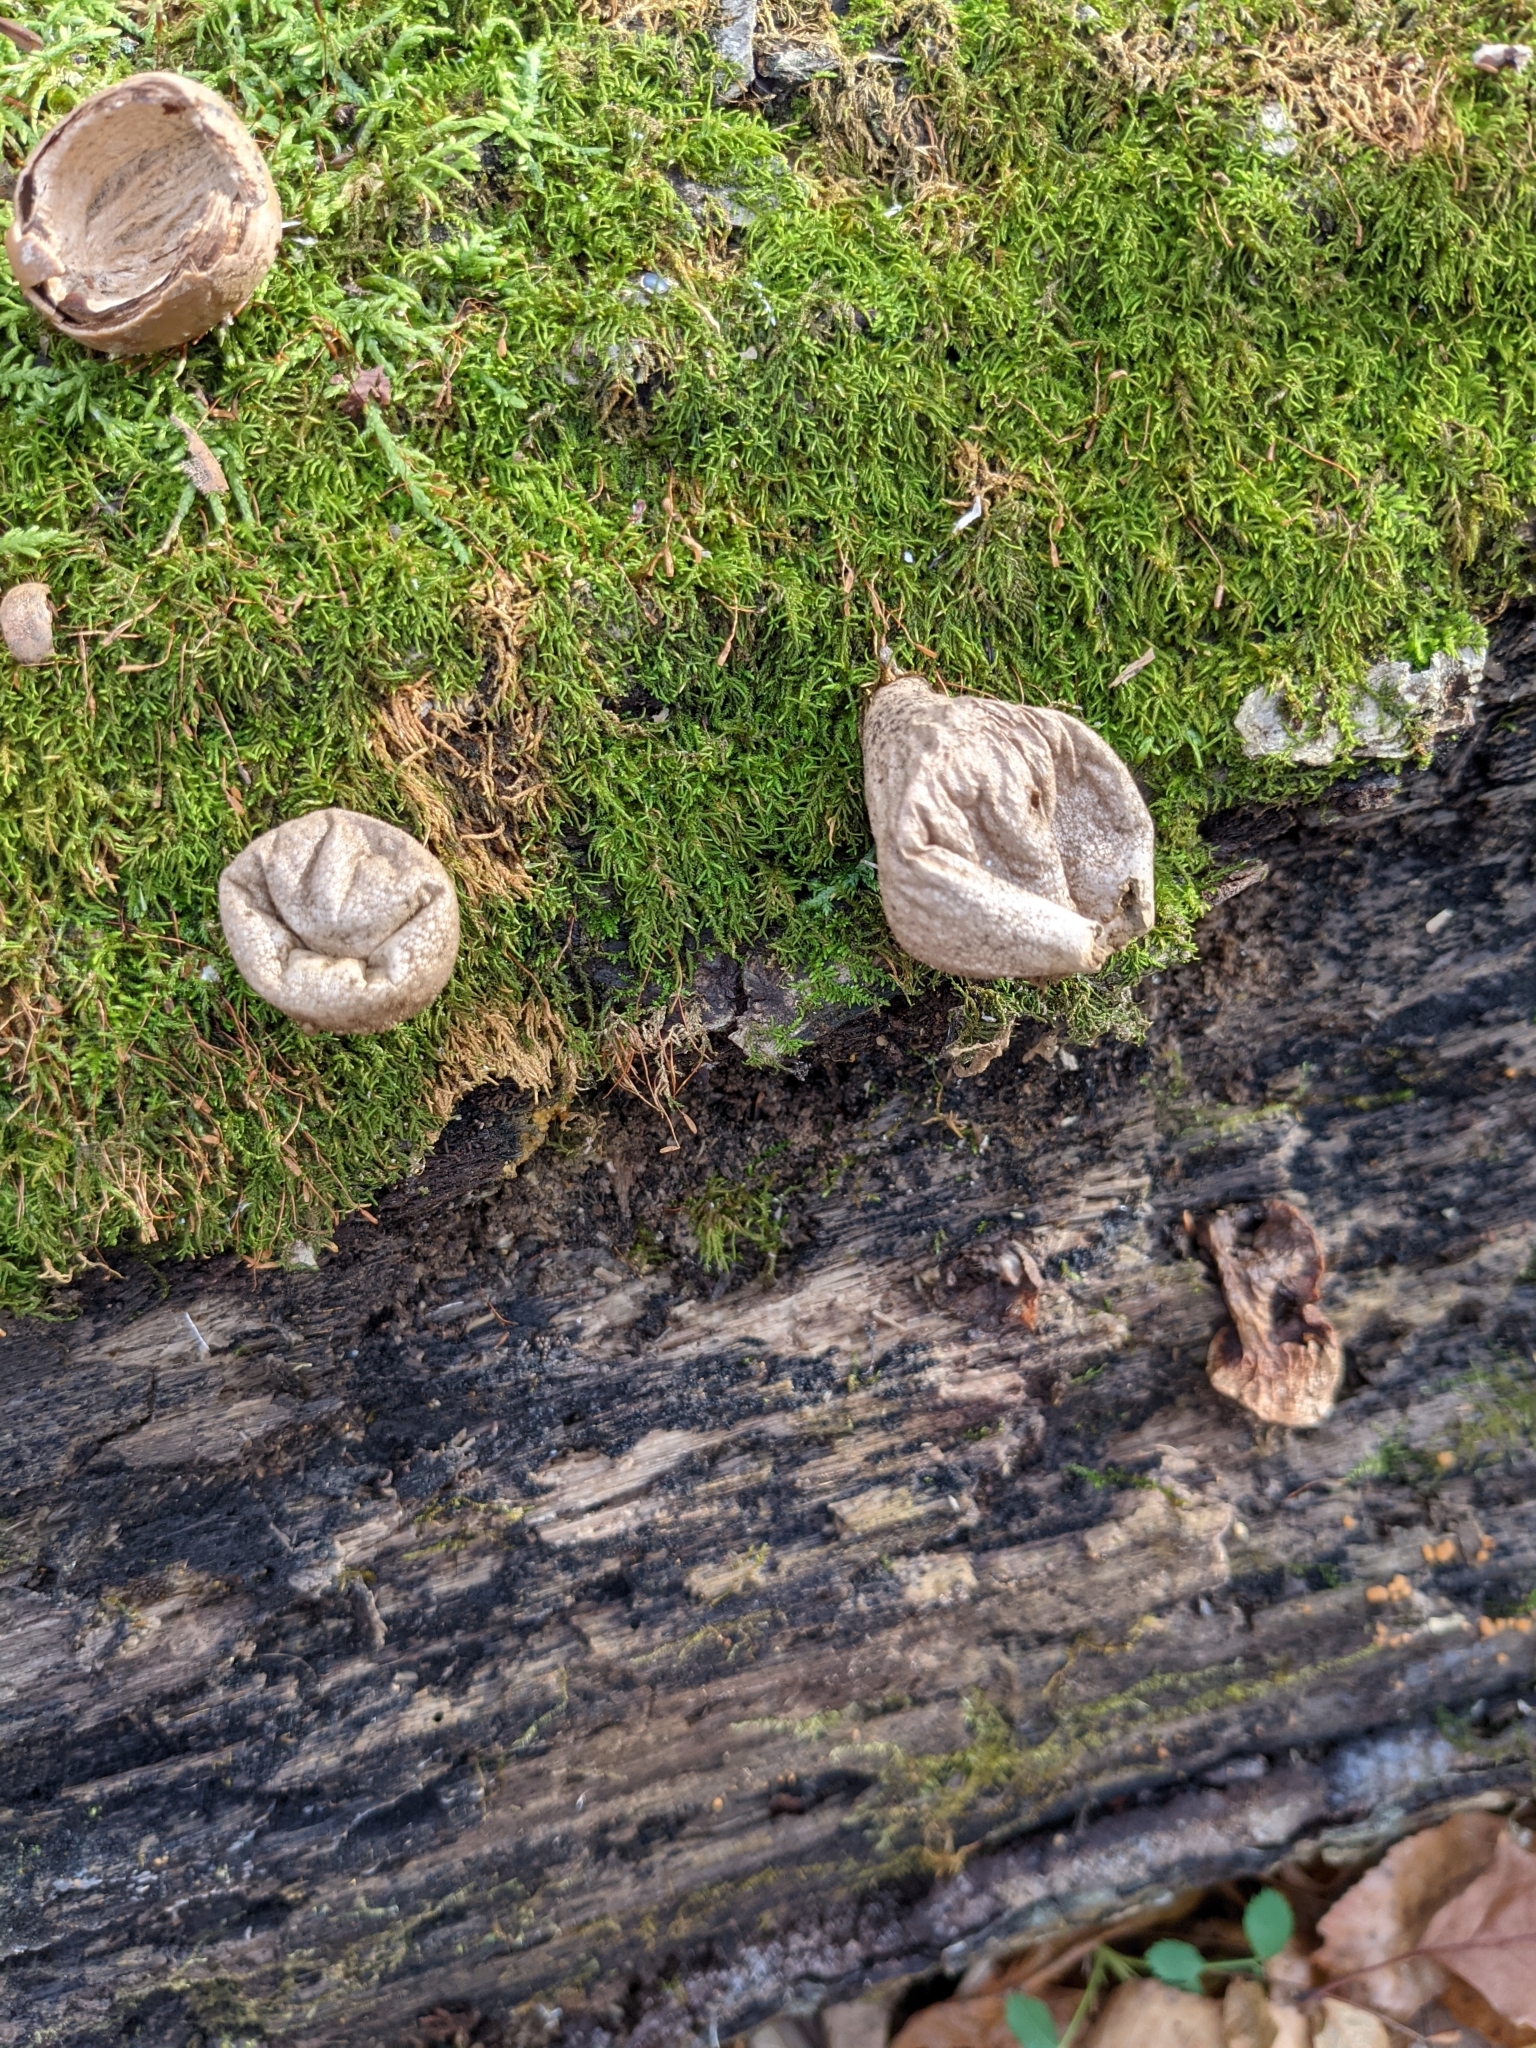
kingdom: Fungi
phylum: Basidiomycota
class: Agaricomycetes
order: Agaricales
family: Lycoperdaceae
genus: Apioperdon
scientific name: Apioperdon pyriforme
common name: Pear-shaped puffball
